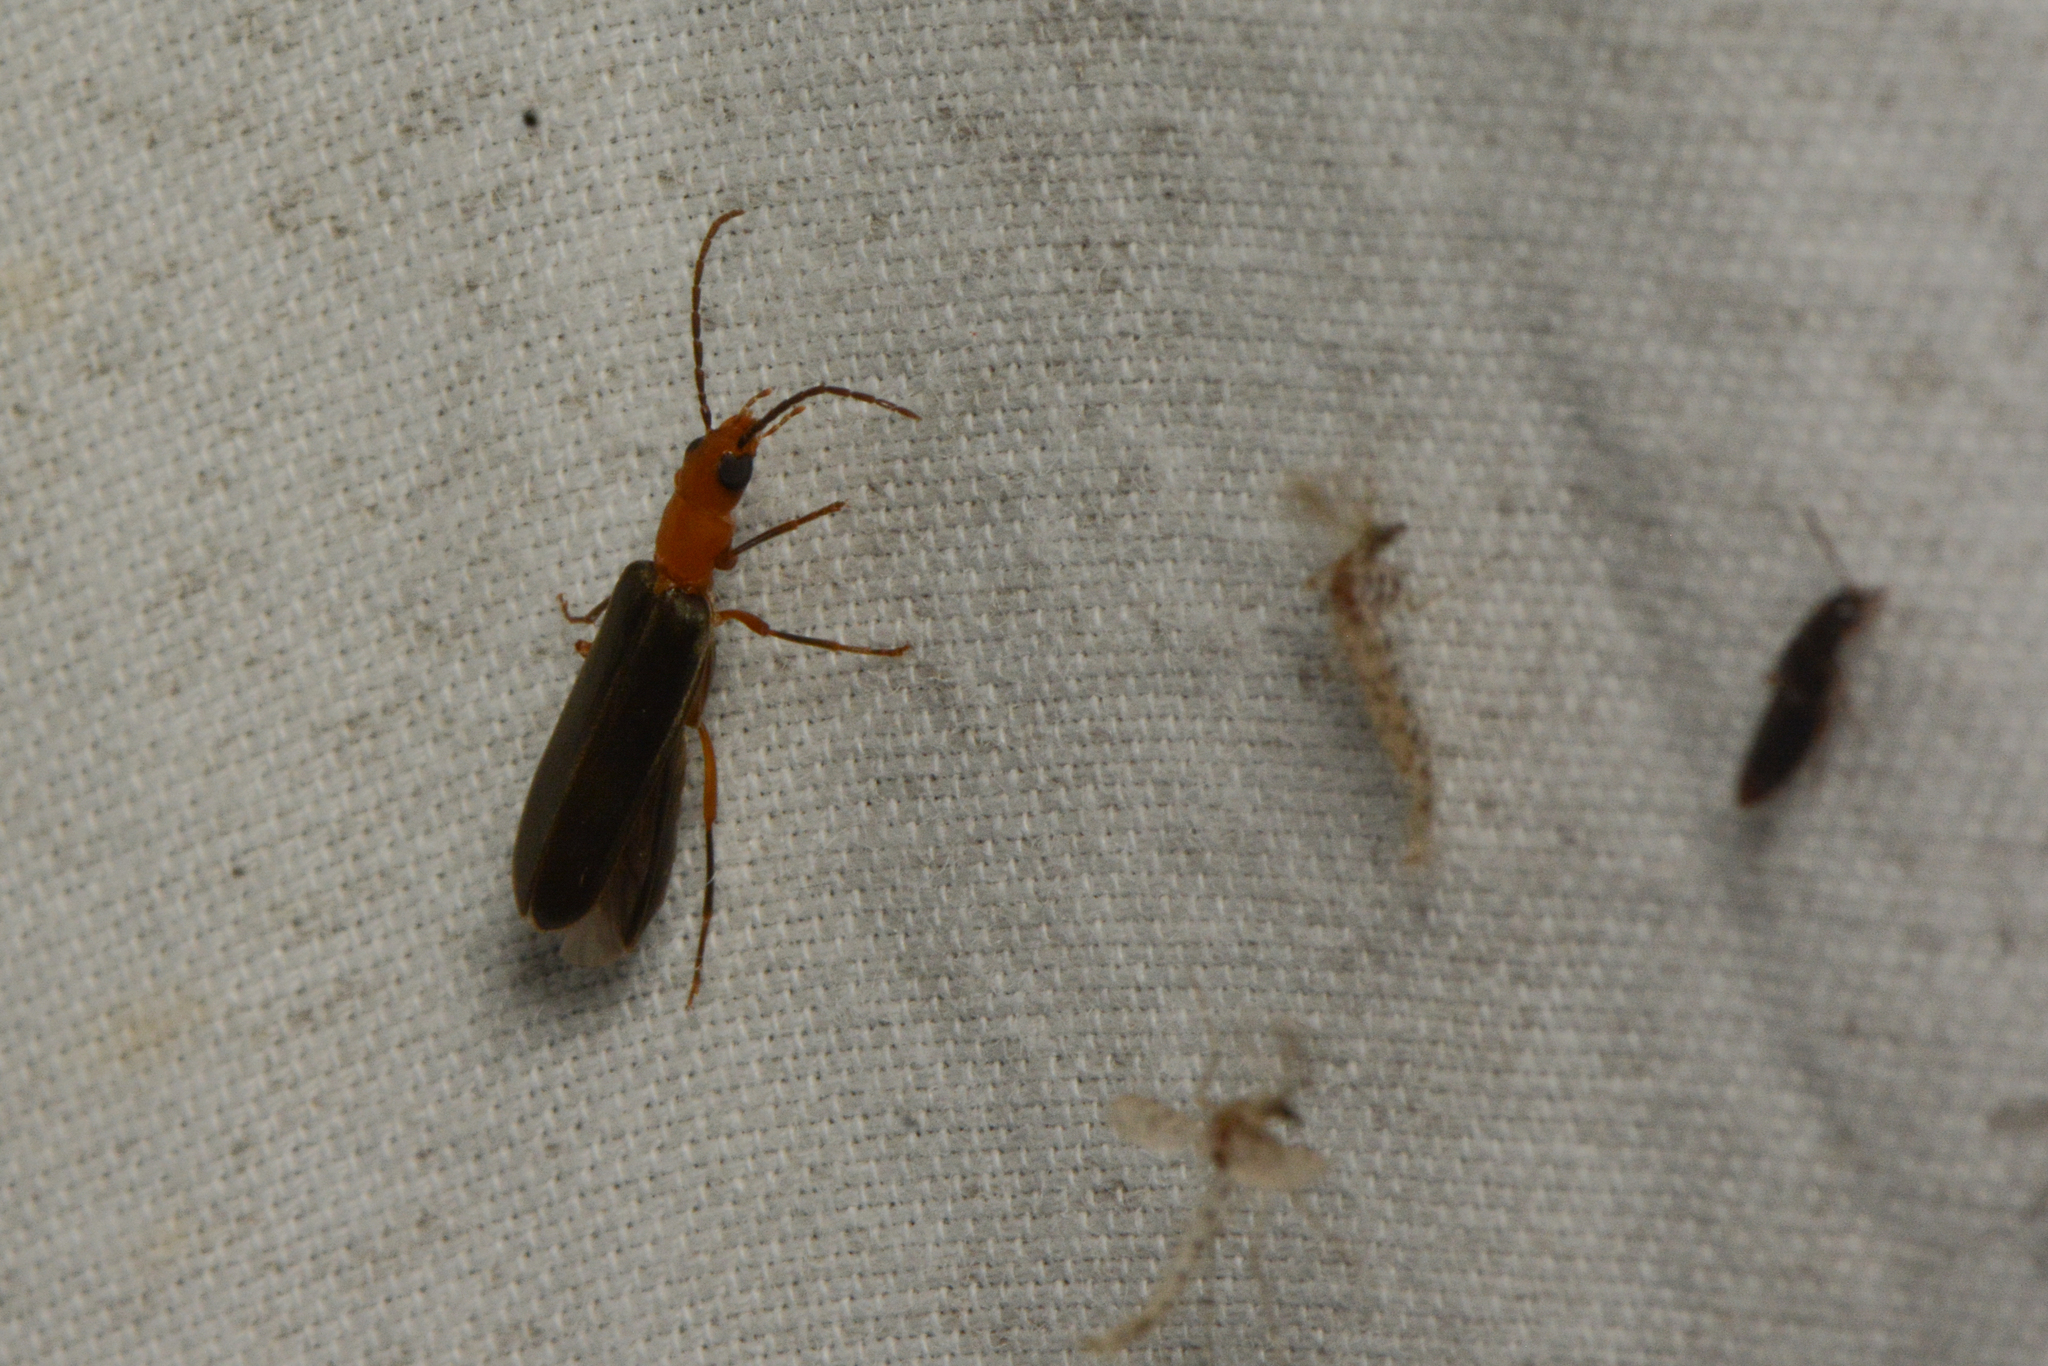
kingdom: Animalia
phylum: Arthropoda
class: Insecta
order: Coleoptera
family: Oedemeridae
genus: Xanthochroina
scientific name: Xanthochroina bicolor
